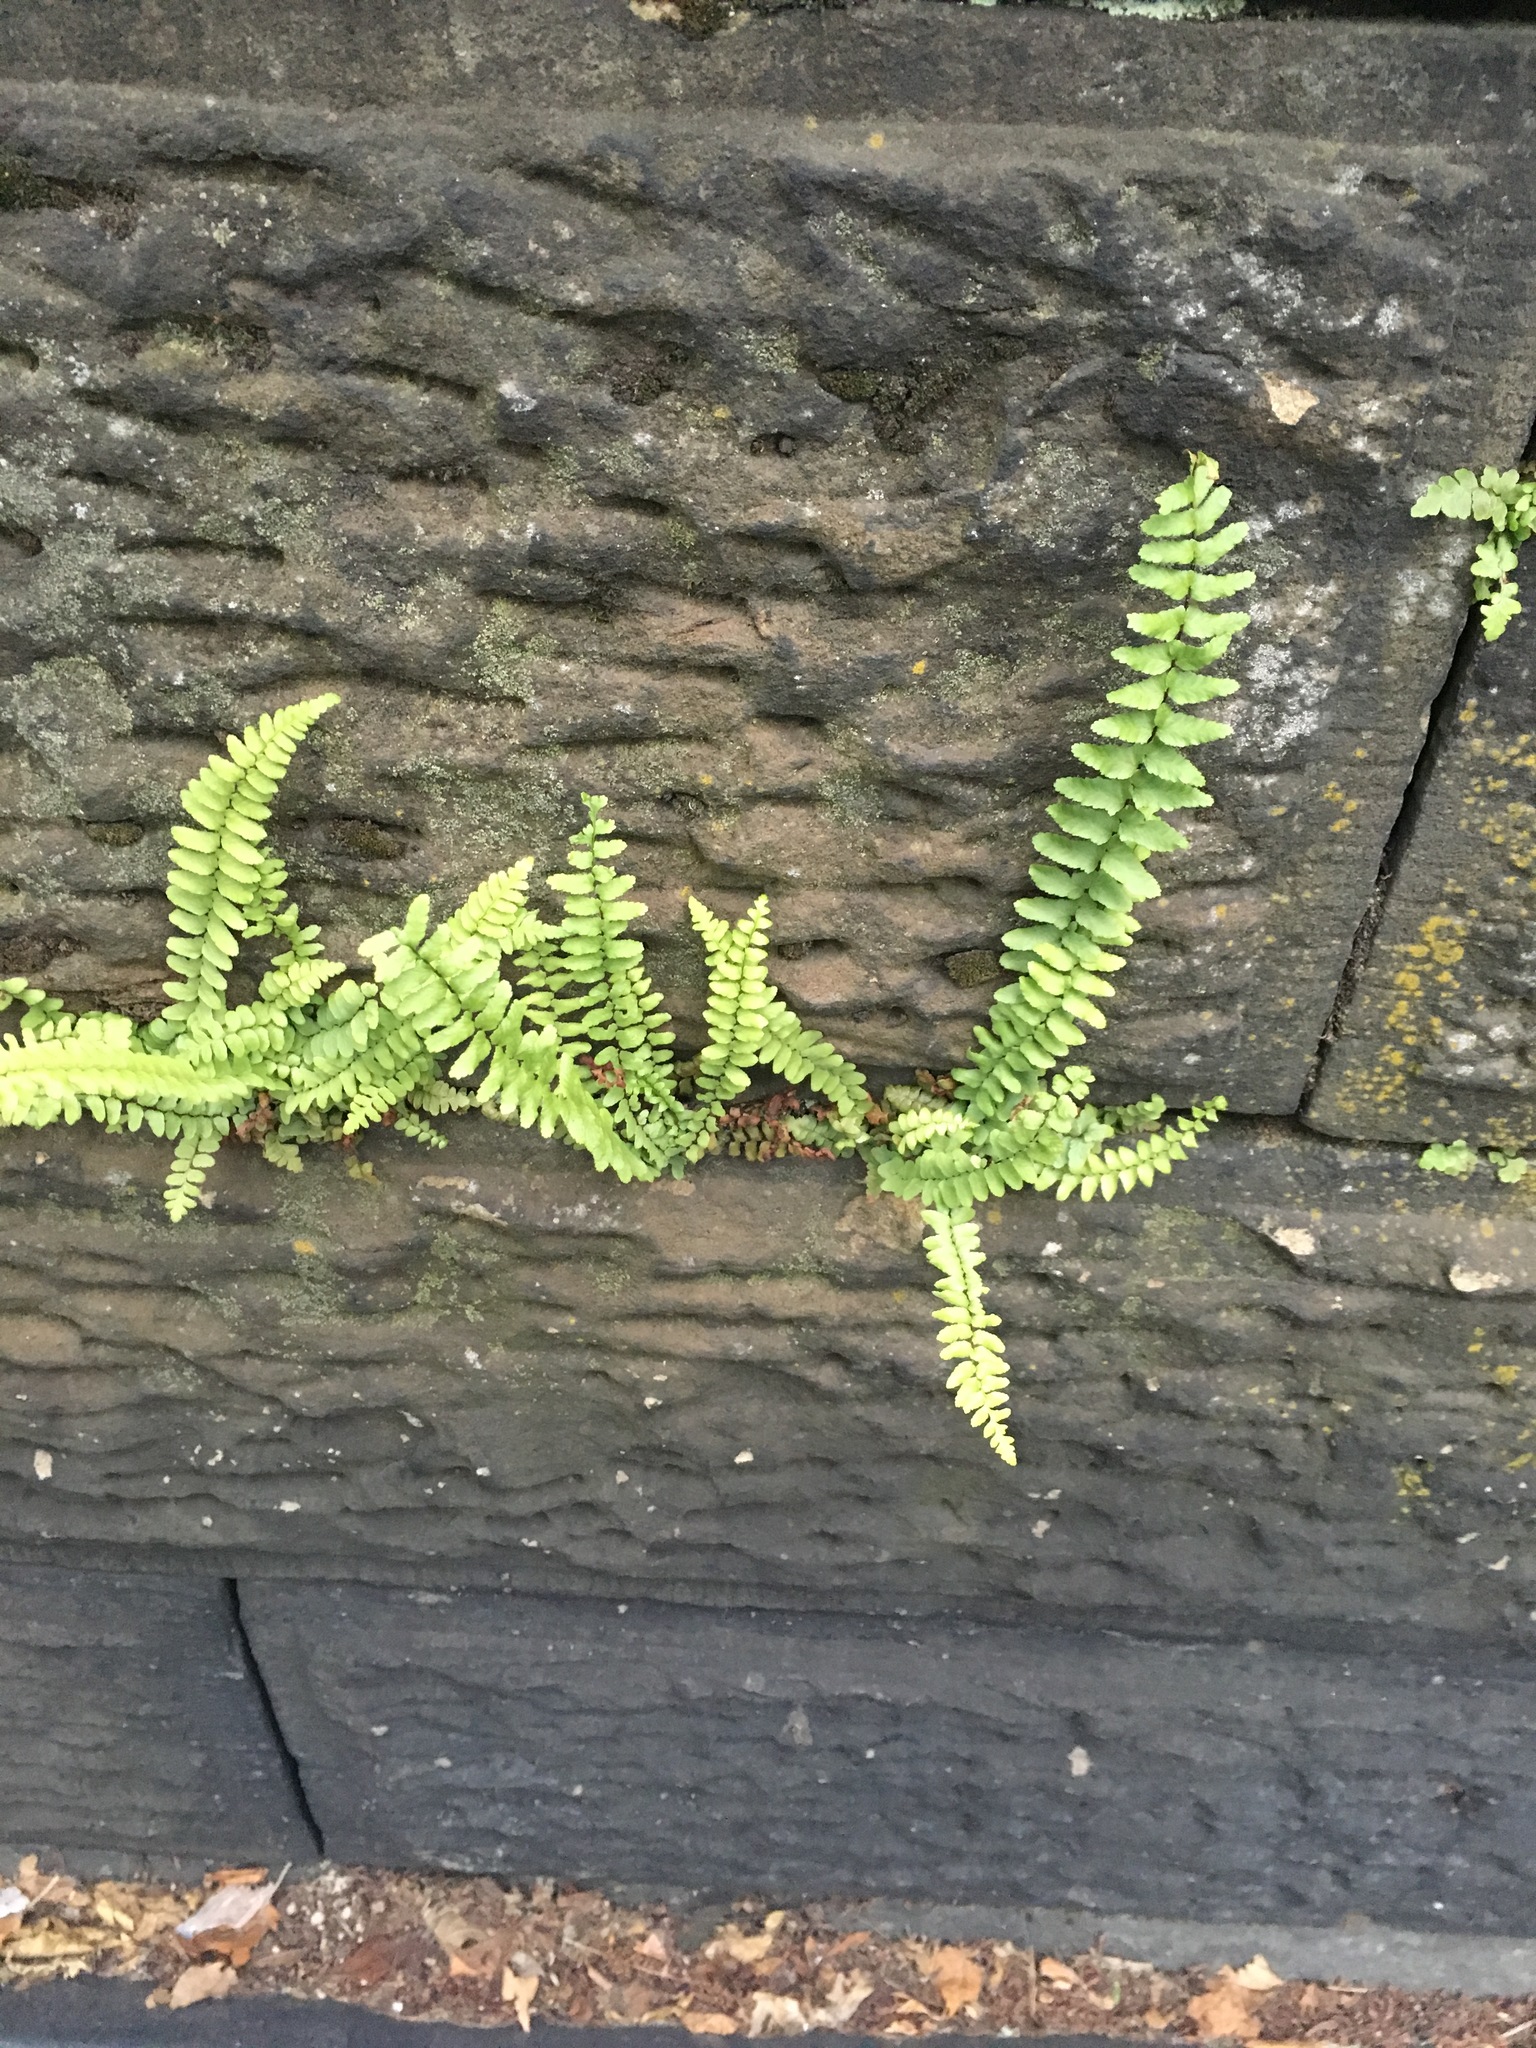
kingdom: Plantae
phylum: Tracheophyta
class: Polypodiopsida
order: Polypodiales
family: Aspleniaceae
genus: Asplenium
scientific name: Asplenium platyneuron
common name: Ebony spleenwort
